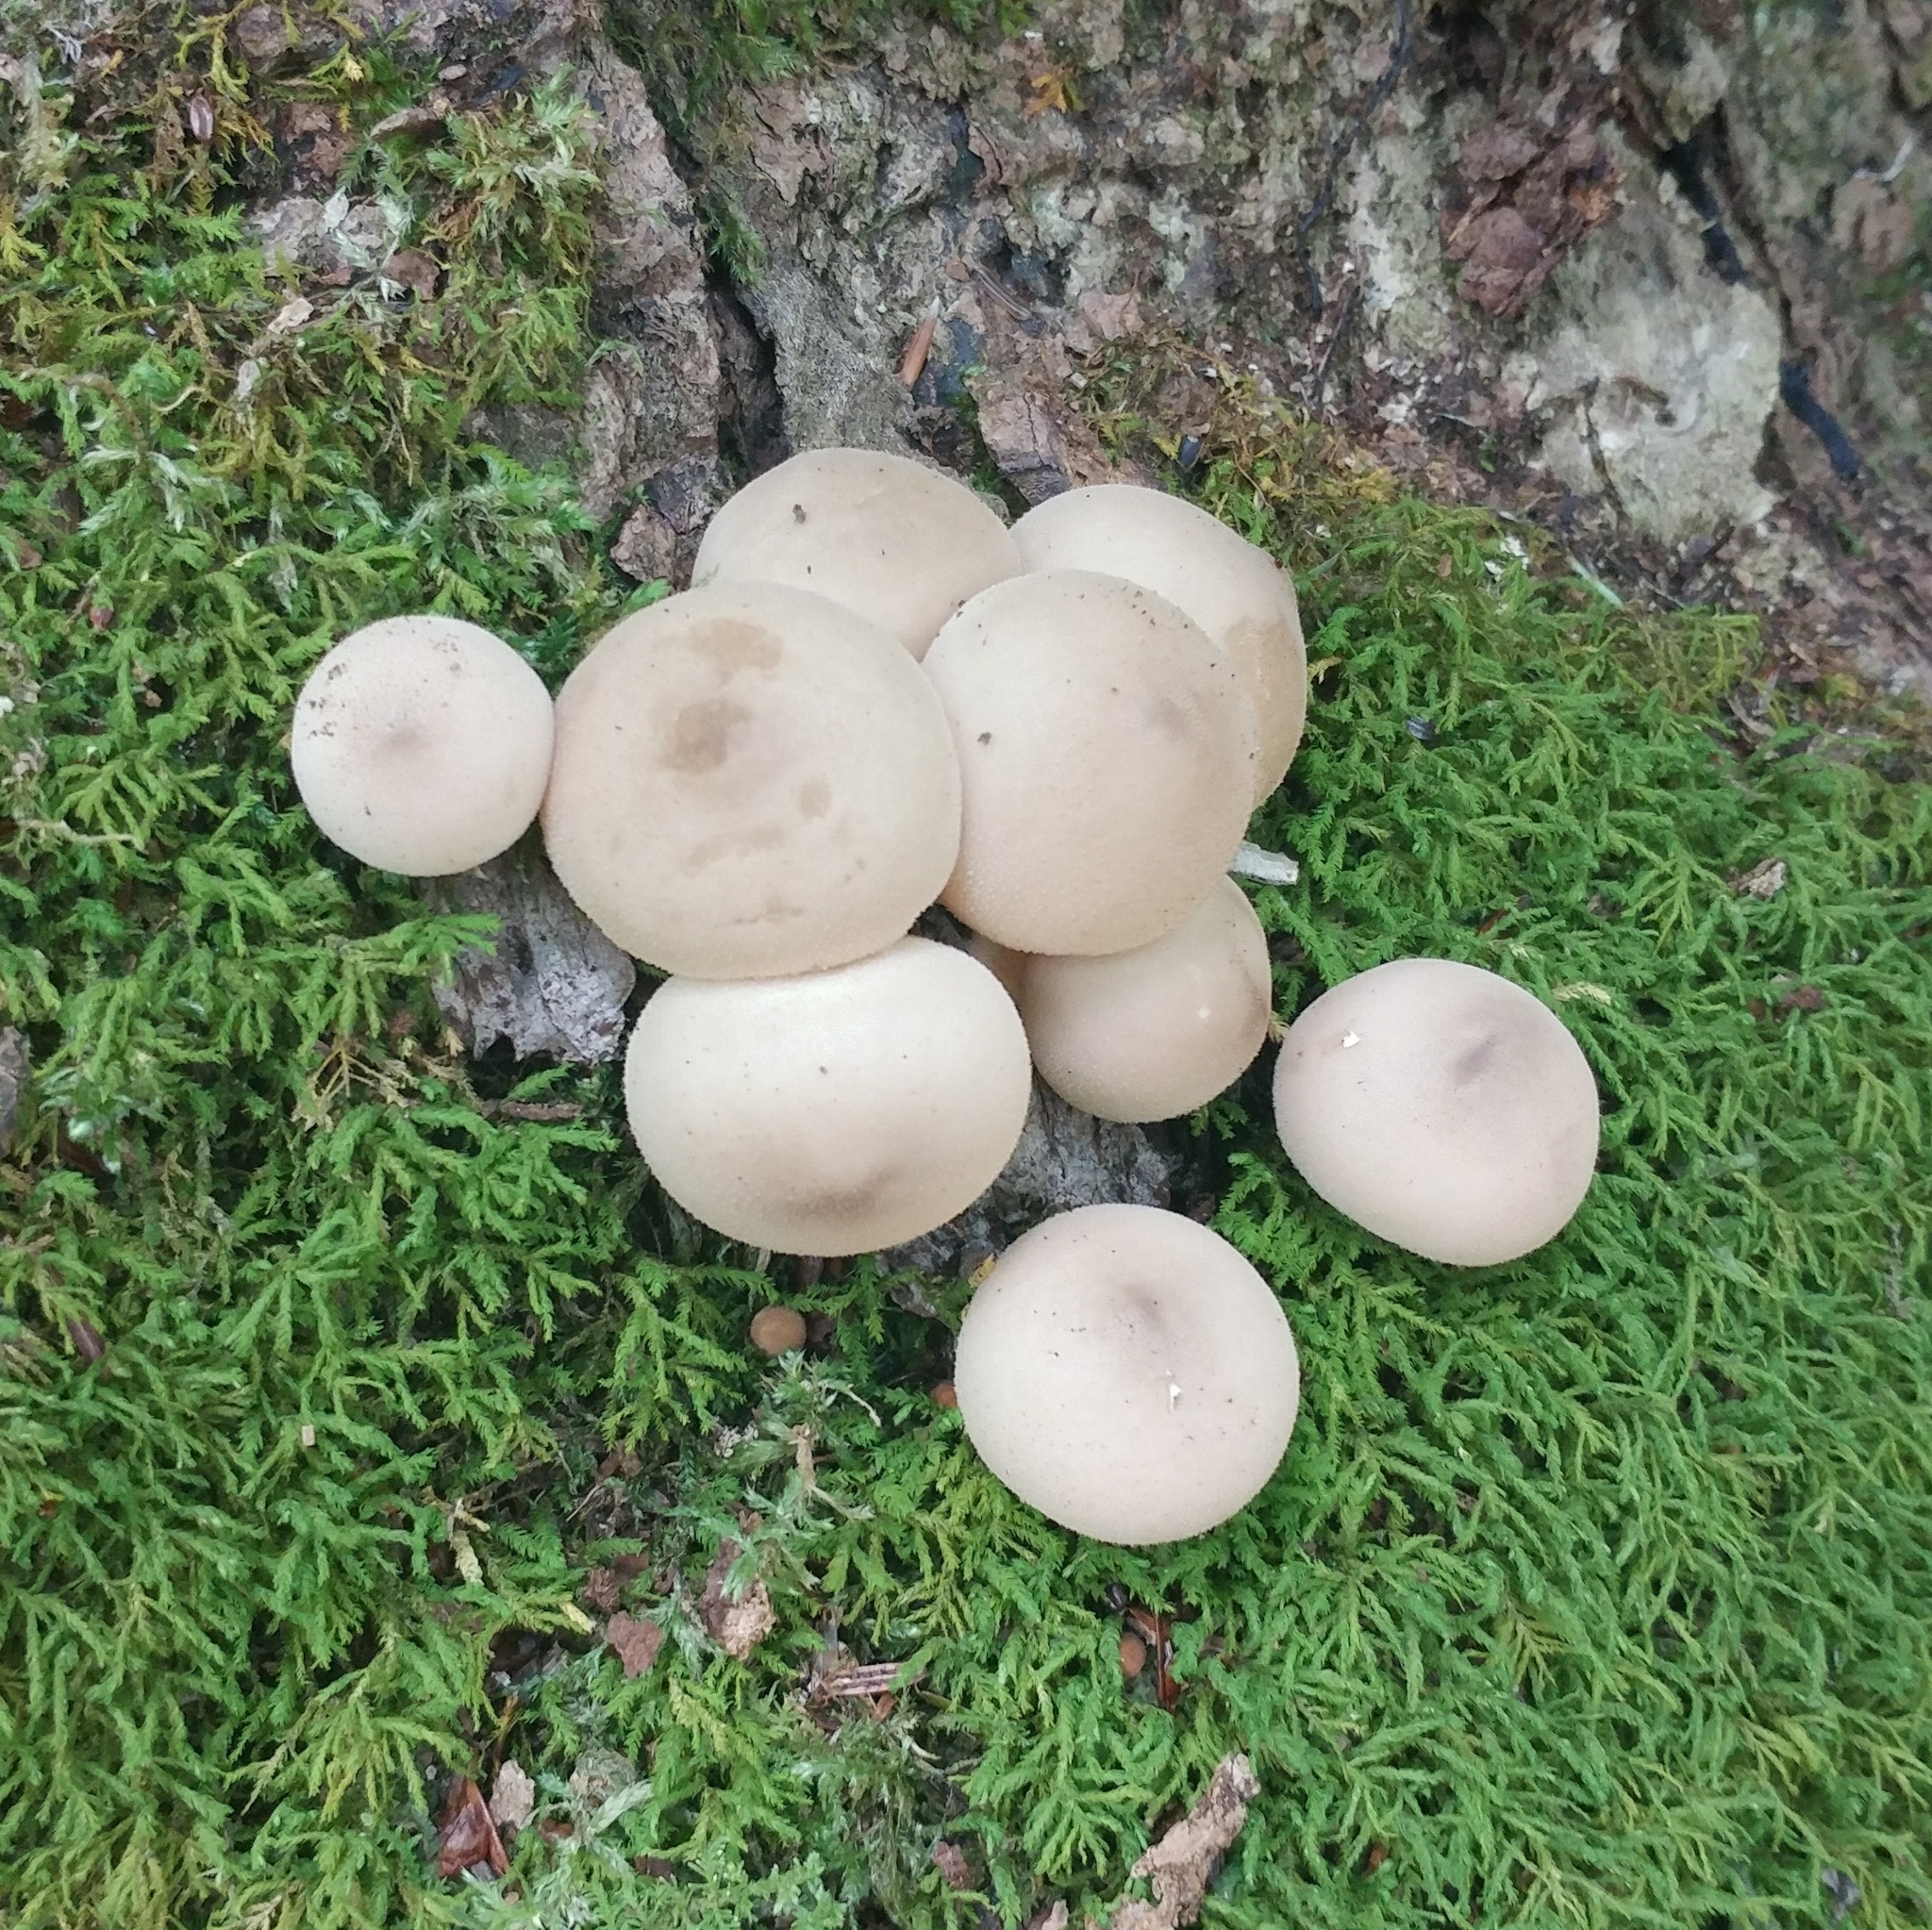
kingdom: Fungi
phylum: Basidiomycota
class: Agaricomycetes
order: Agaricales
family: Lycoperdaceae
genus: Apioperdon
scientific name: Apioperdon pyriforme
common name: Pear-shaped puffball
